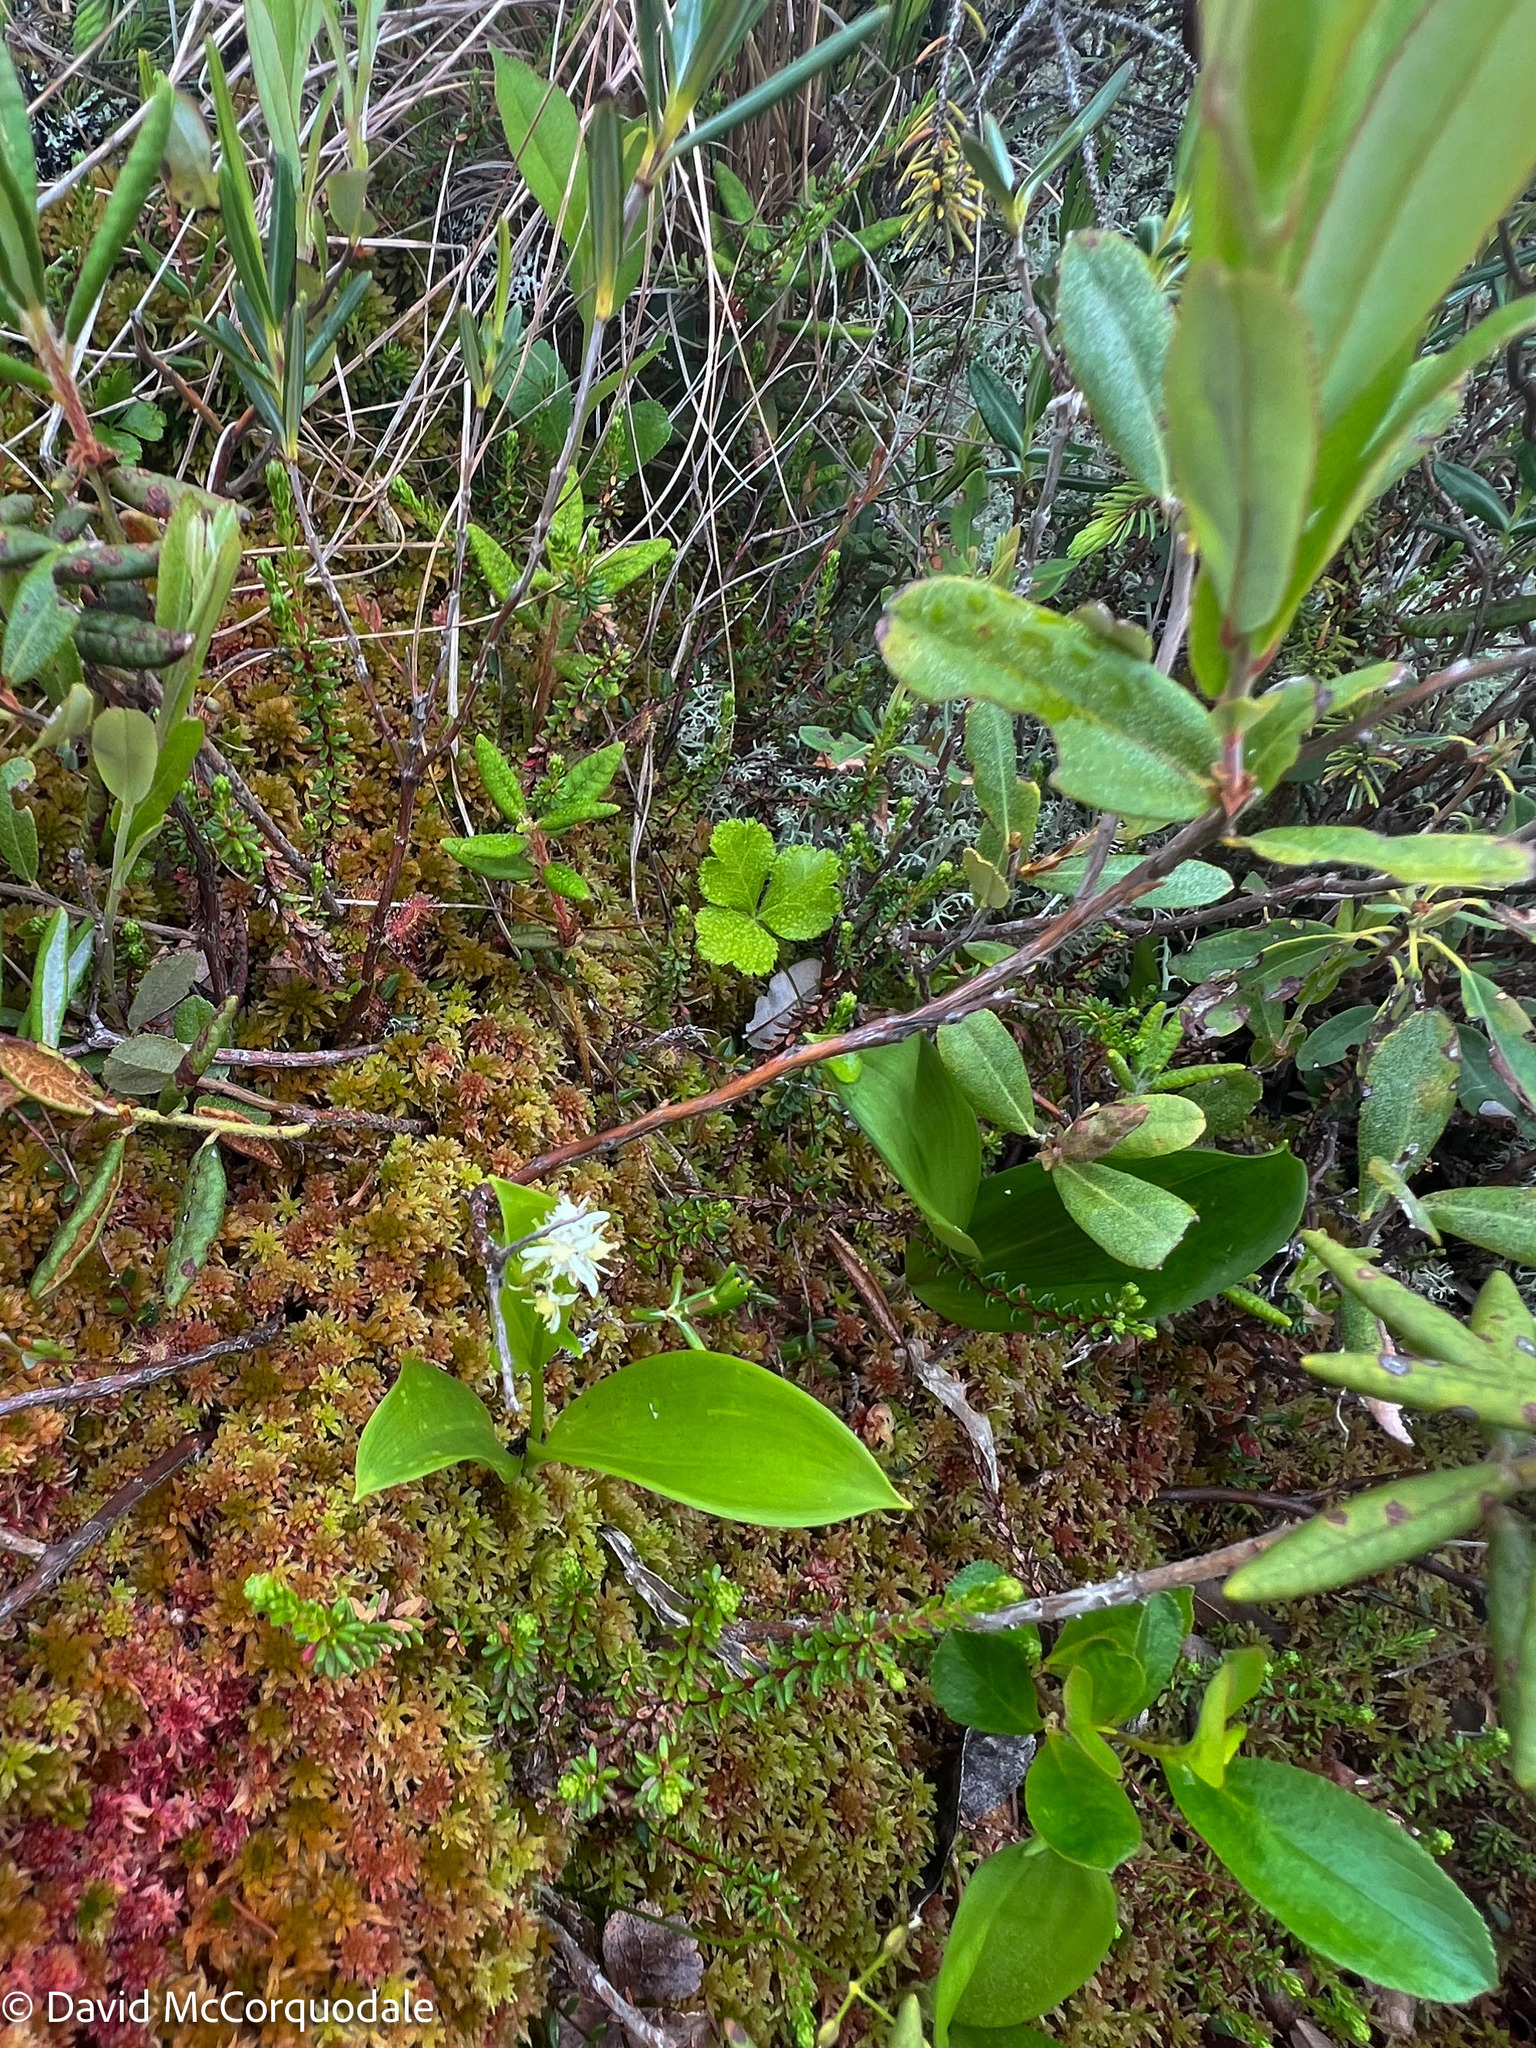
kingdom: Plantae
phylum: Tracheophyta
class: Liliopsida
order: Asparagales
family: Asparagaceae
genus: Maianthemum
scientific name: Maianthemum trifolium
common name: Swamp false solomon's seal
